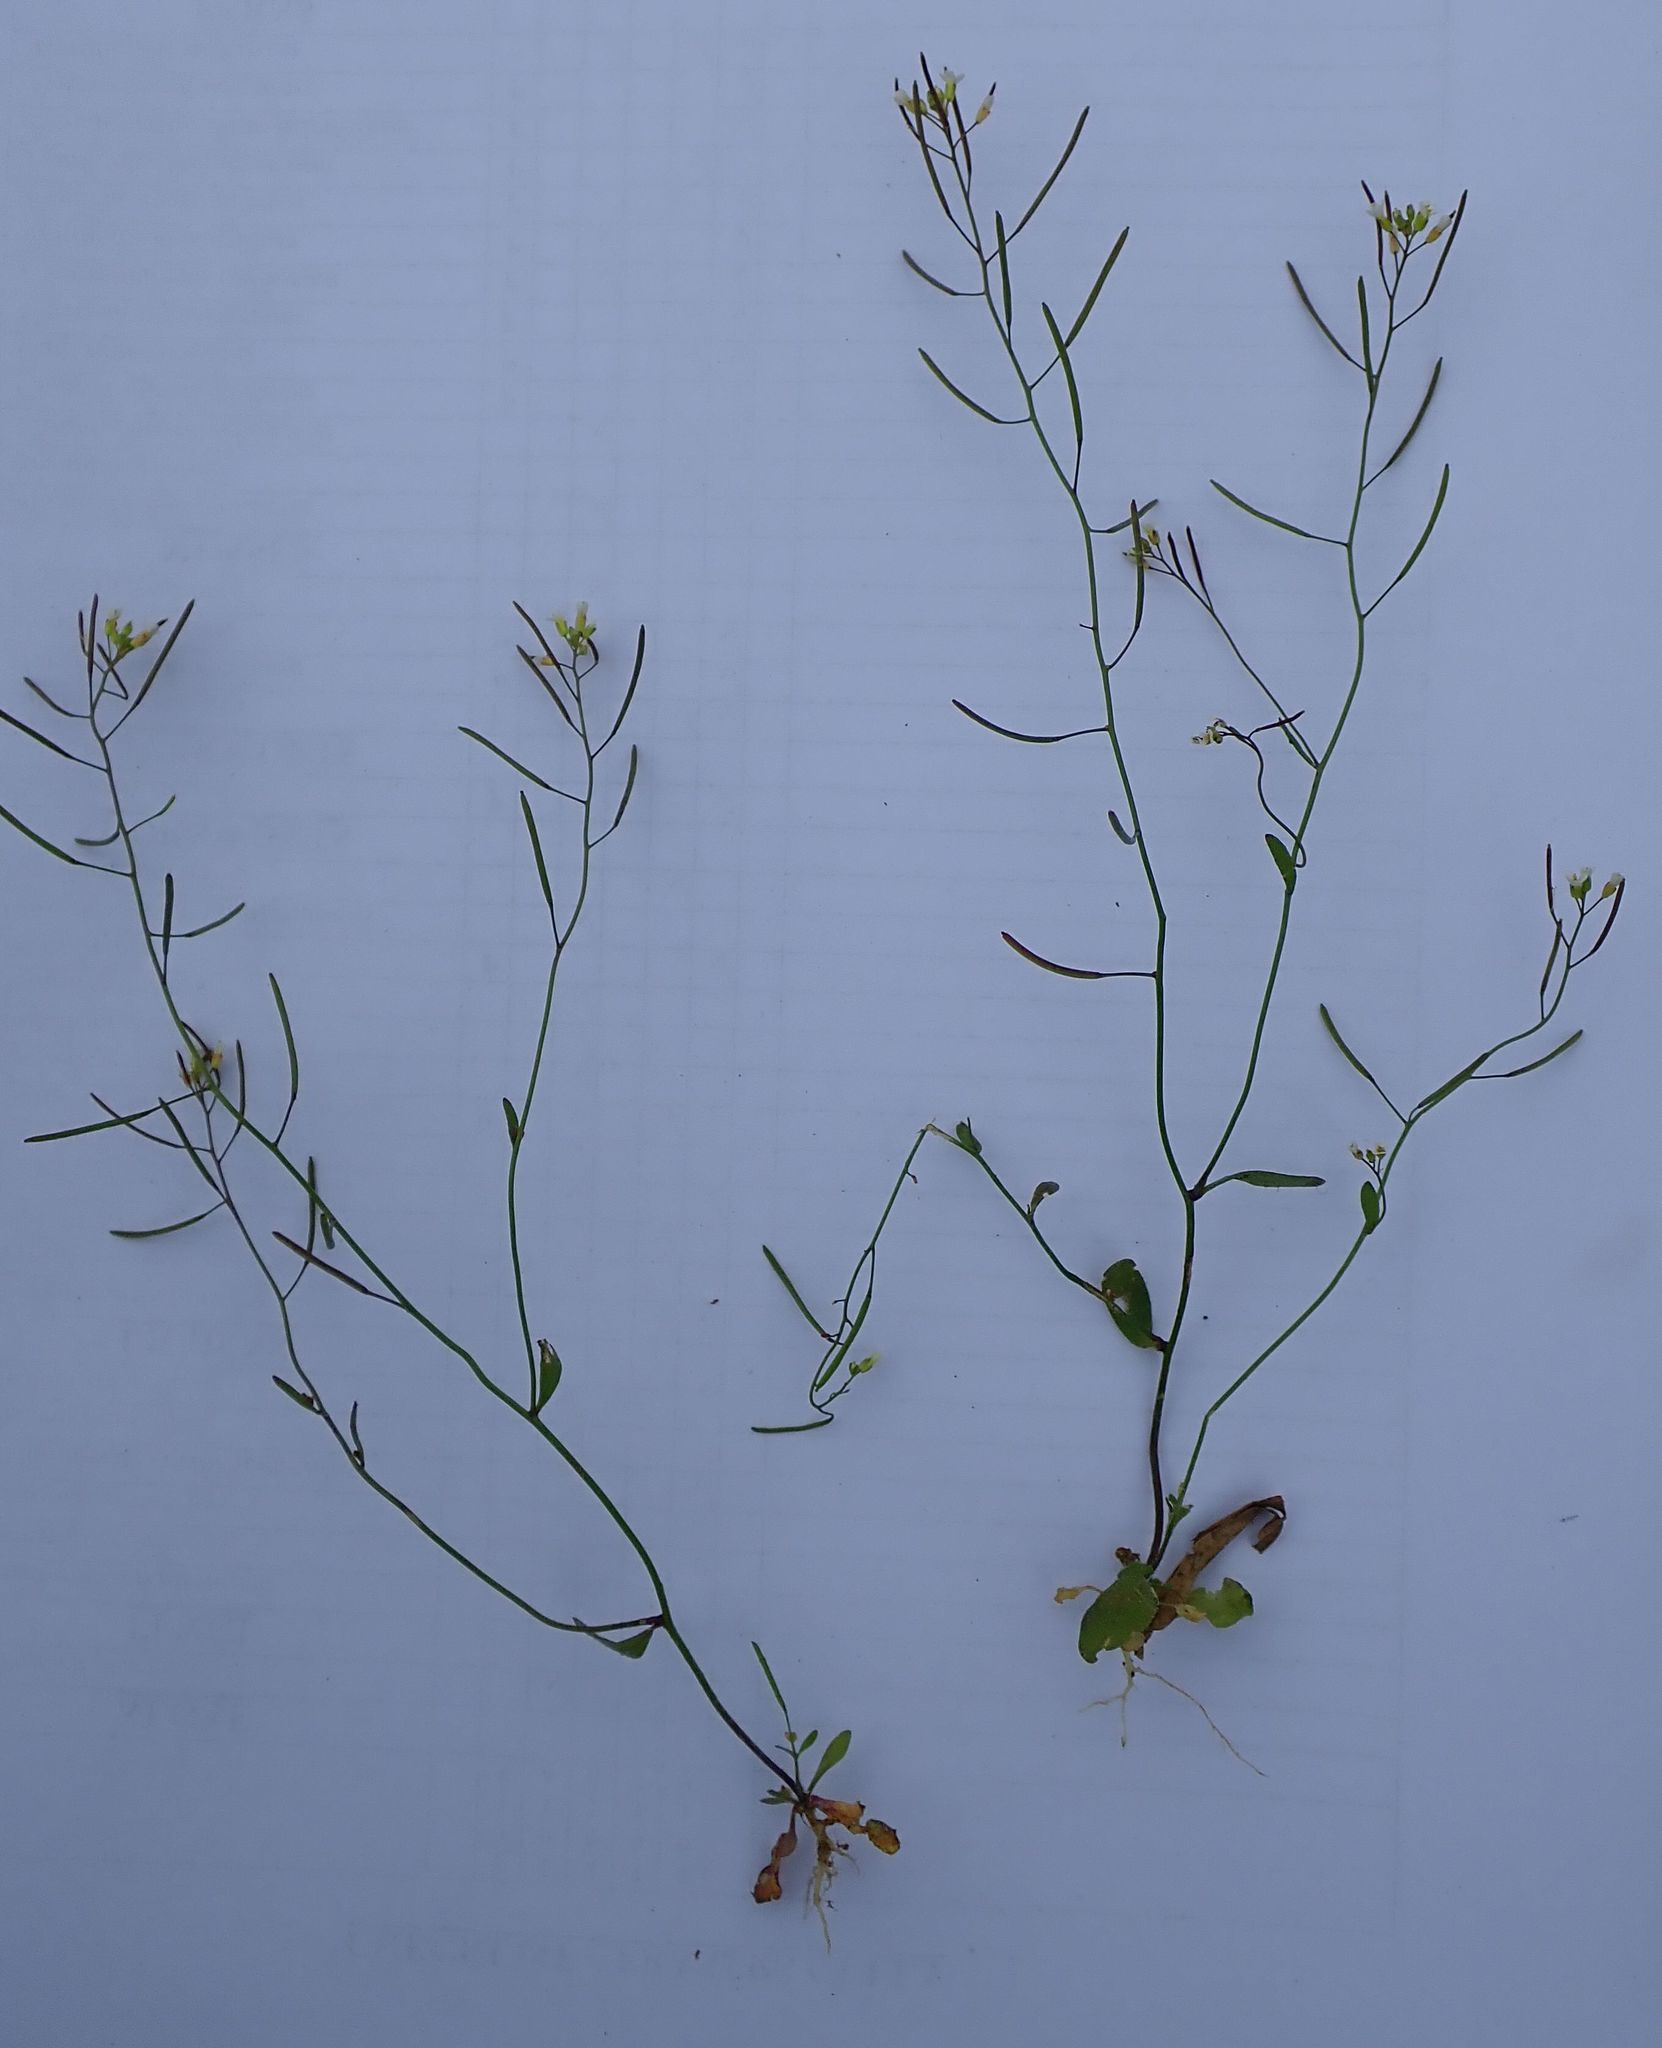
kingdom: Plantae
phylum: Tracheophyta
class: Magnoliopsida
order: Brassicales
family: Brassicaceae
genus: Arabidopsis
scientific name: Arabidopsis thaliana
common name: Thale cress
